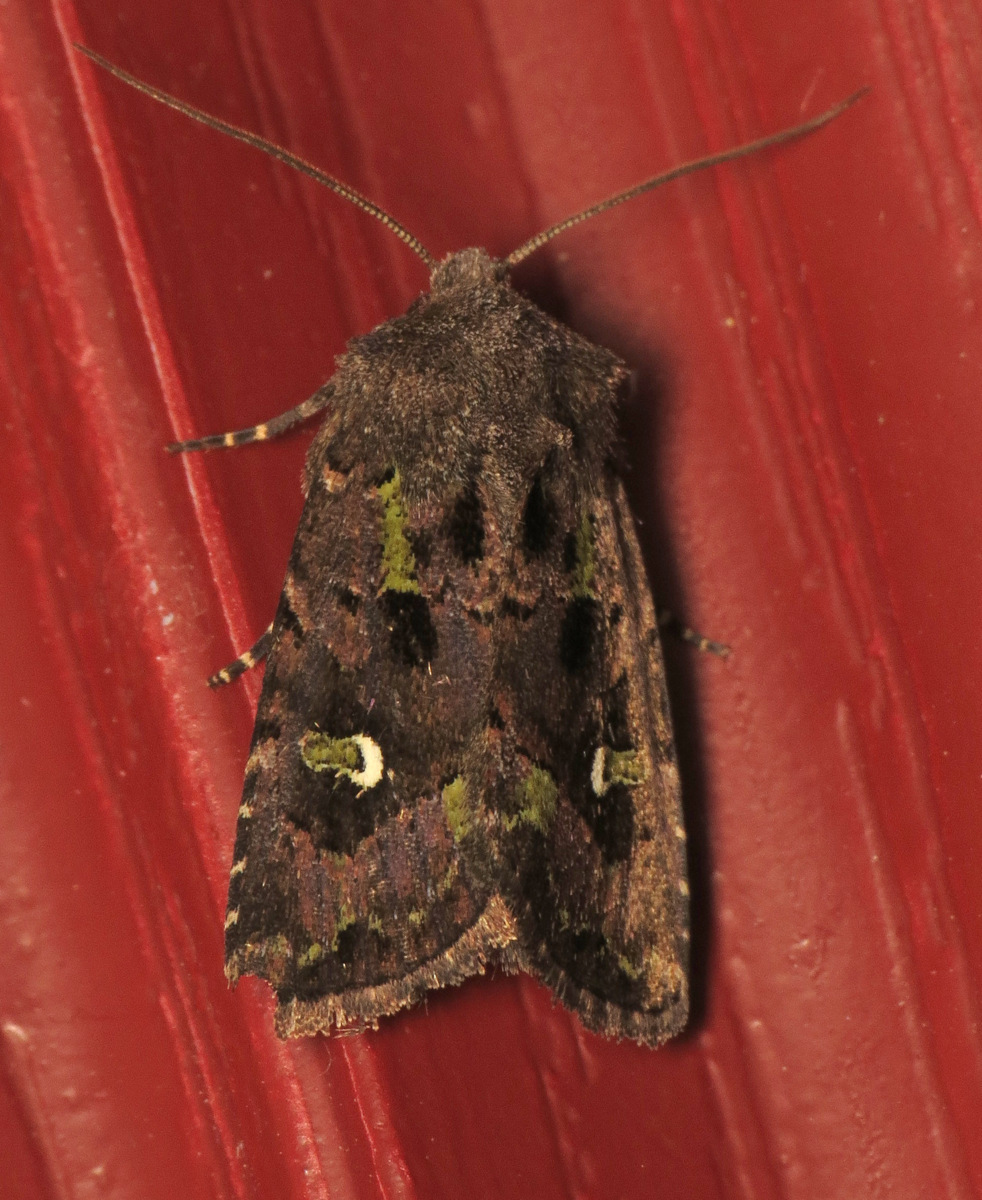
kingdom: Animalia
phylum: Arthropoda
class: Insecta
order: Lepidoptera
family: Noctuidae
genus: Lacinipolia
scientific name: Lacinipolia renigera
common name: Kidney-spotted minor
